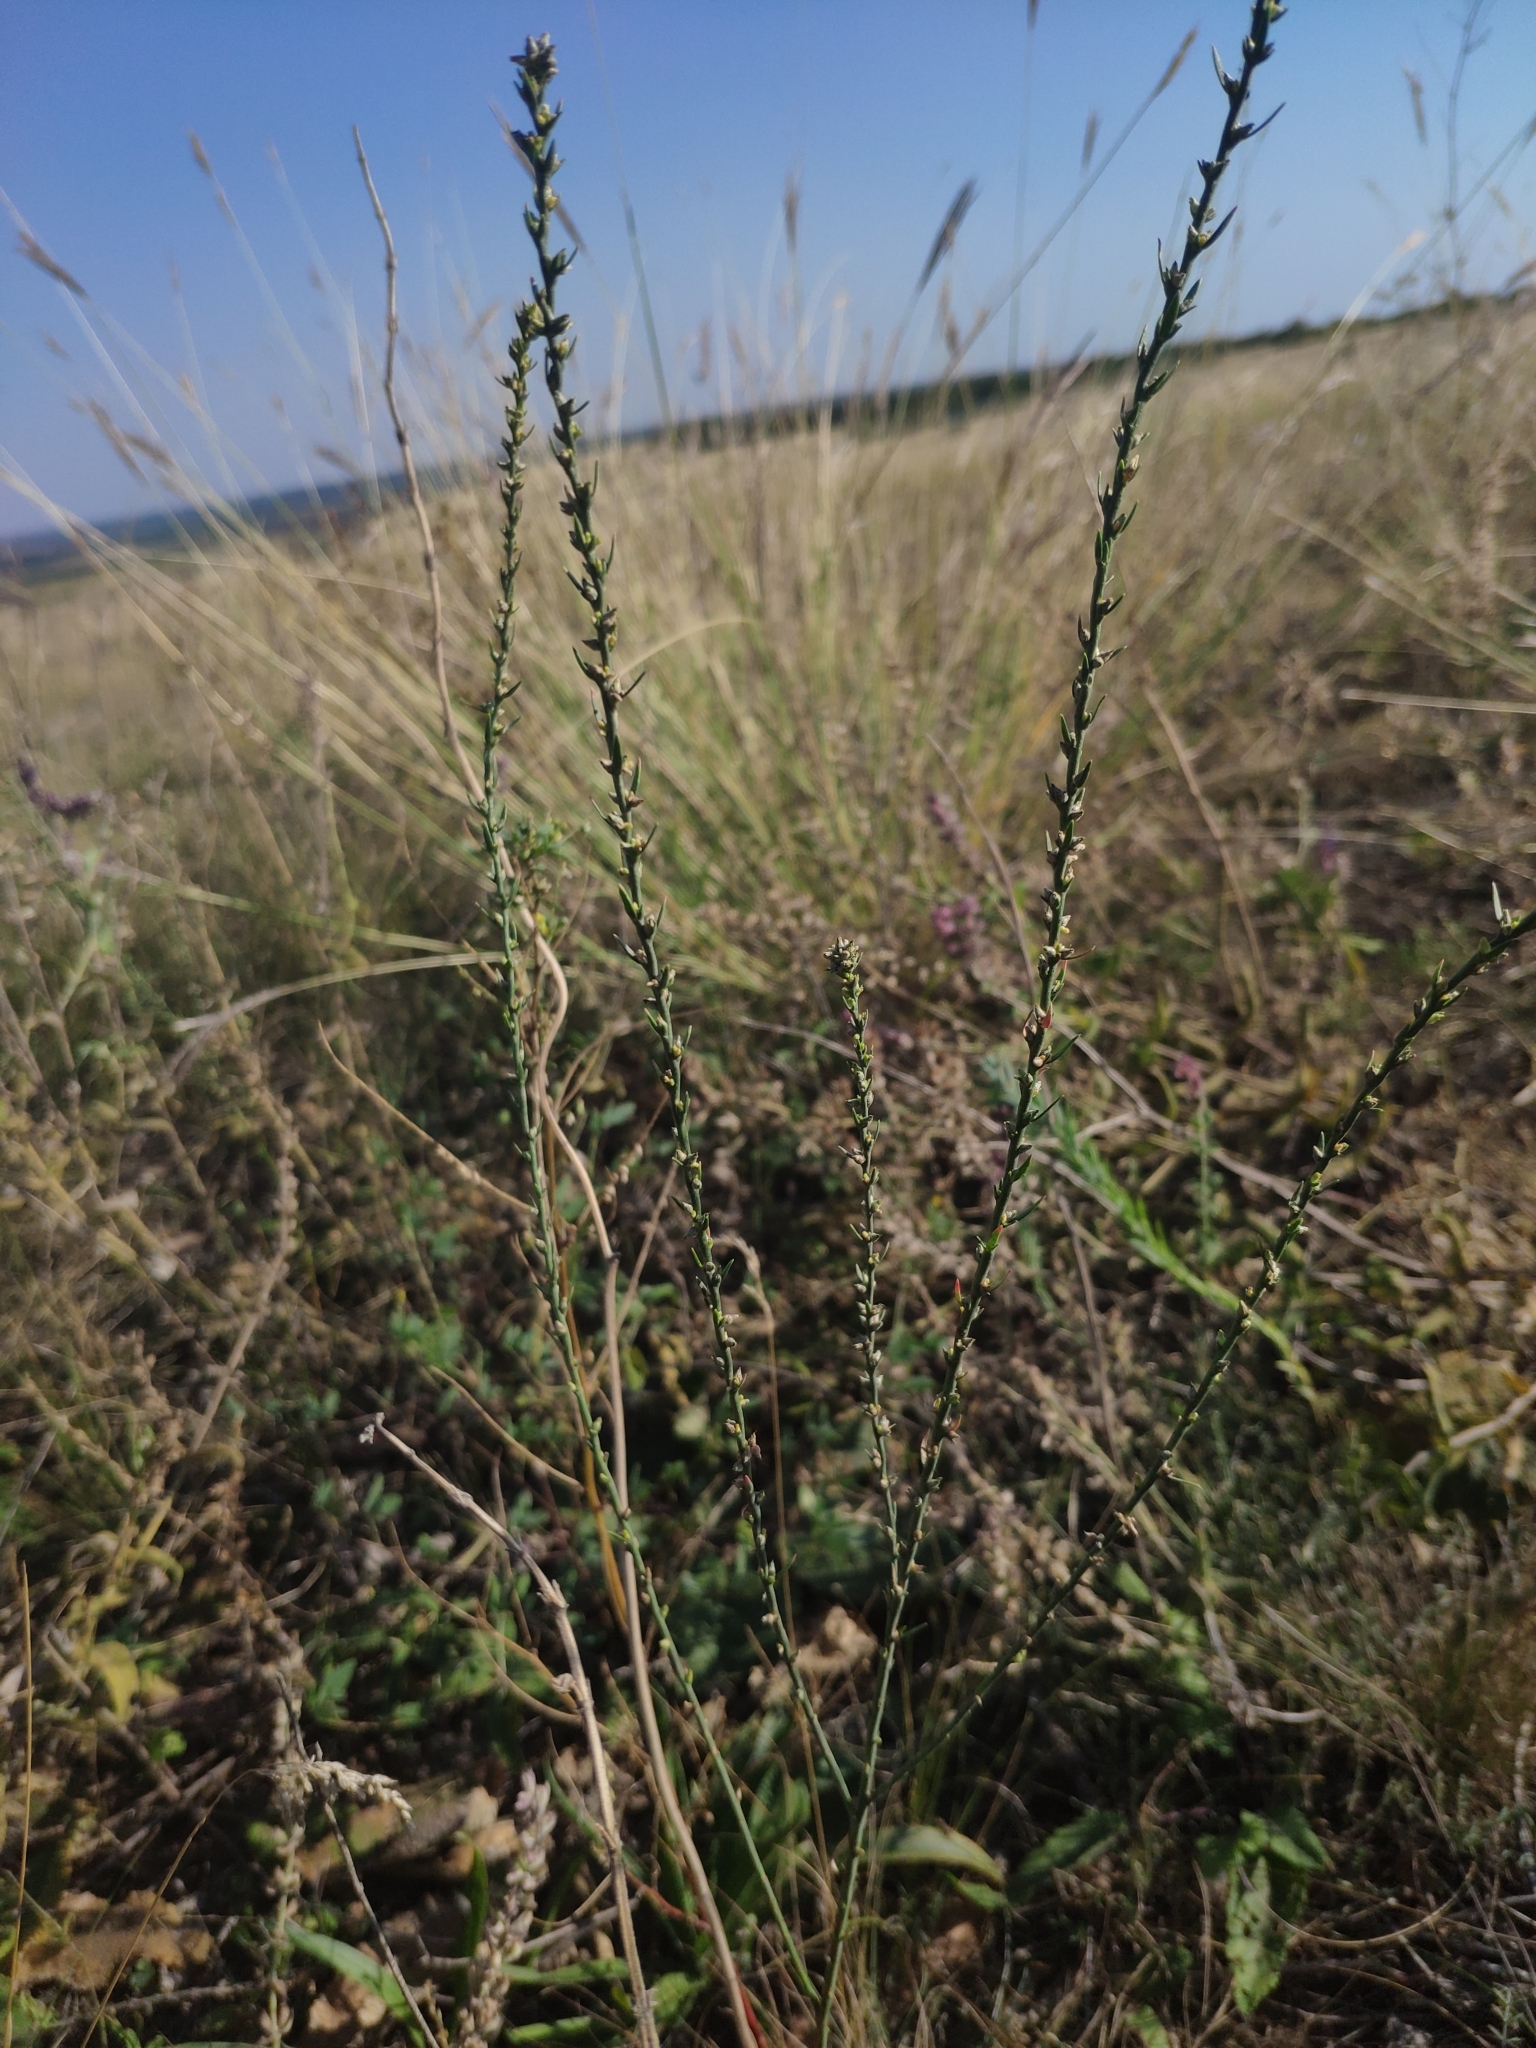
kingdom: Plantae
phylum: Tracheophyta
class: Magnoliopsida
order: Malvales
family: Thymelaeaceae
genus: Thymelaea
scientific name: Thymelaea passerina
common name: Annual thymelaea
